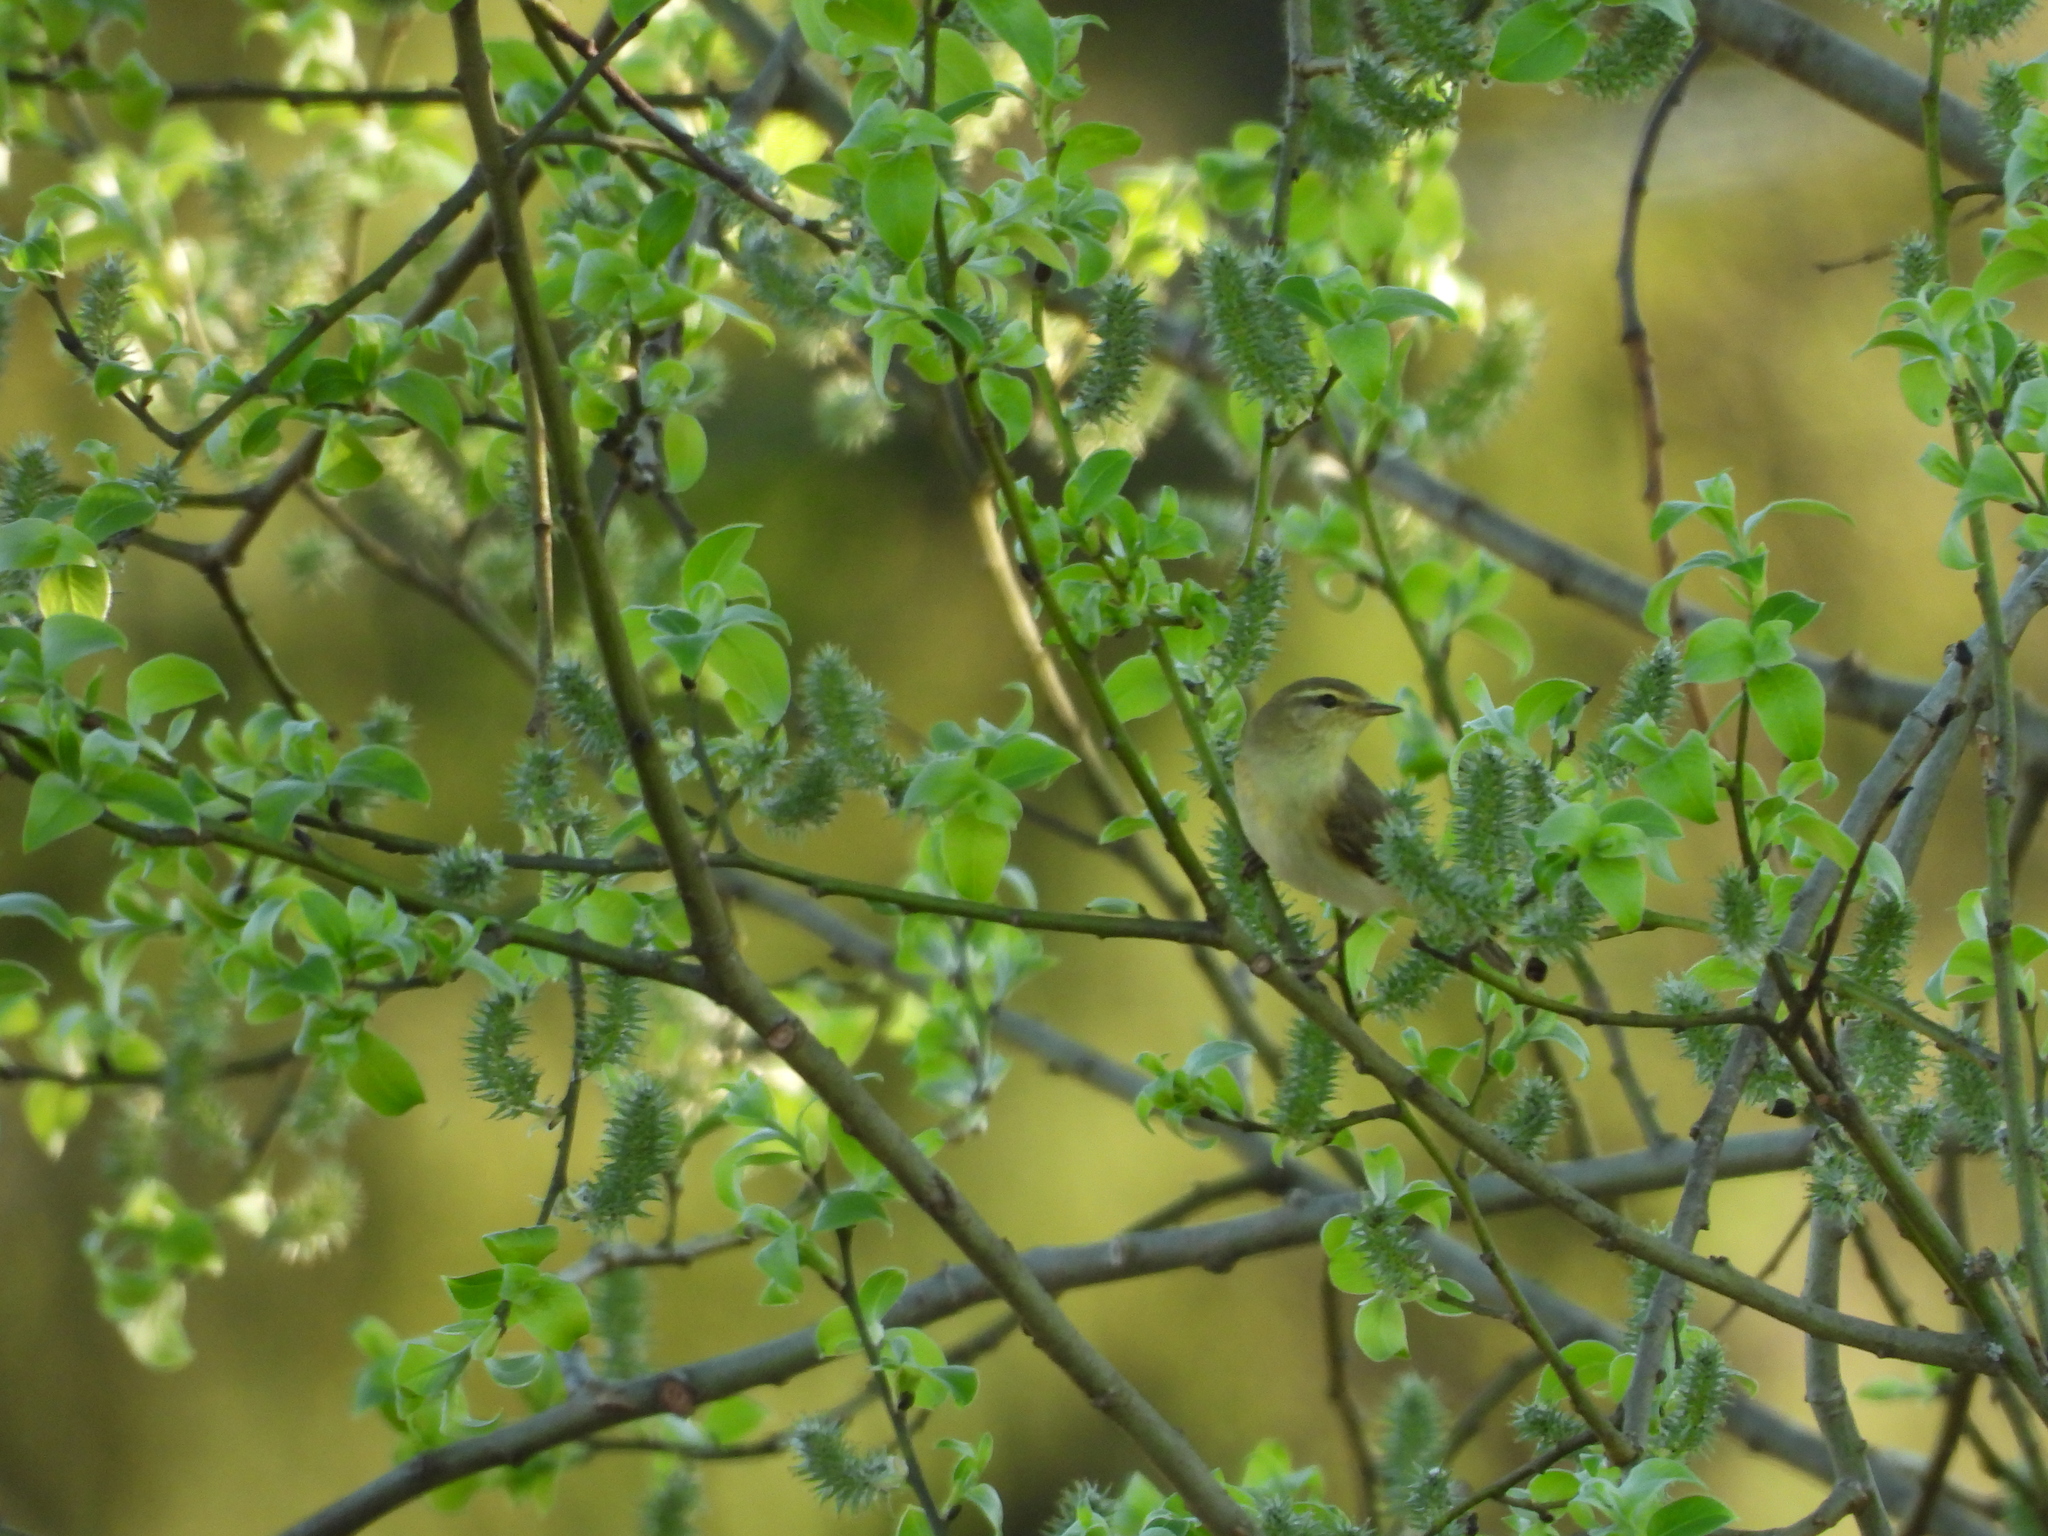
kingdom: Animalia
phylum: Chordata
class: Aves
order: Passeriformes
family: Phylloscopidae
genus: Phylloscopus
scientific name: Phylloscopus trochilus
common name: Willow warbler
